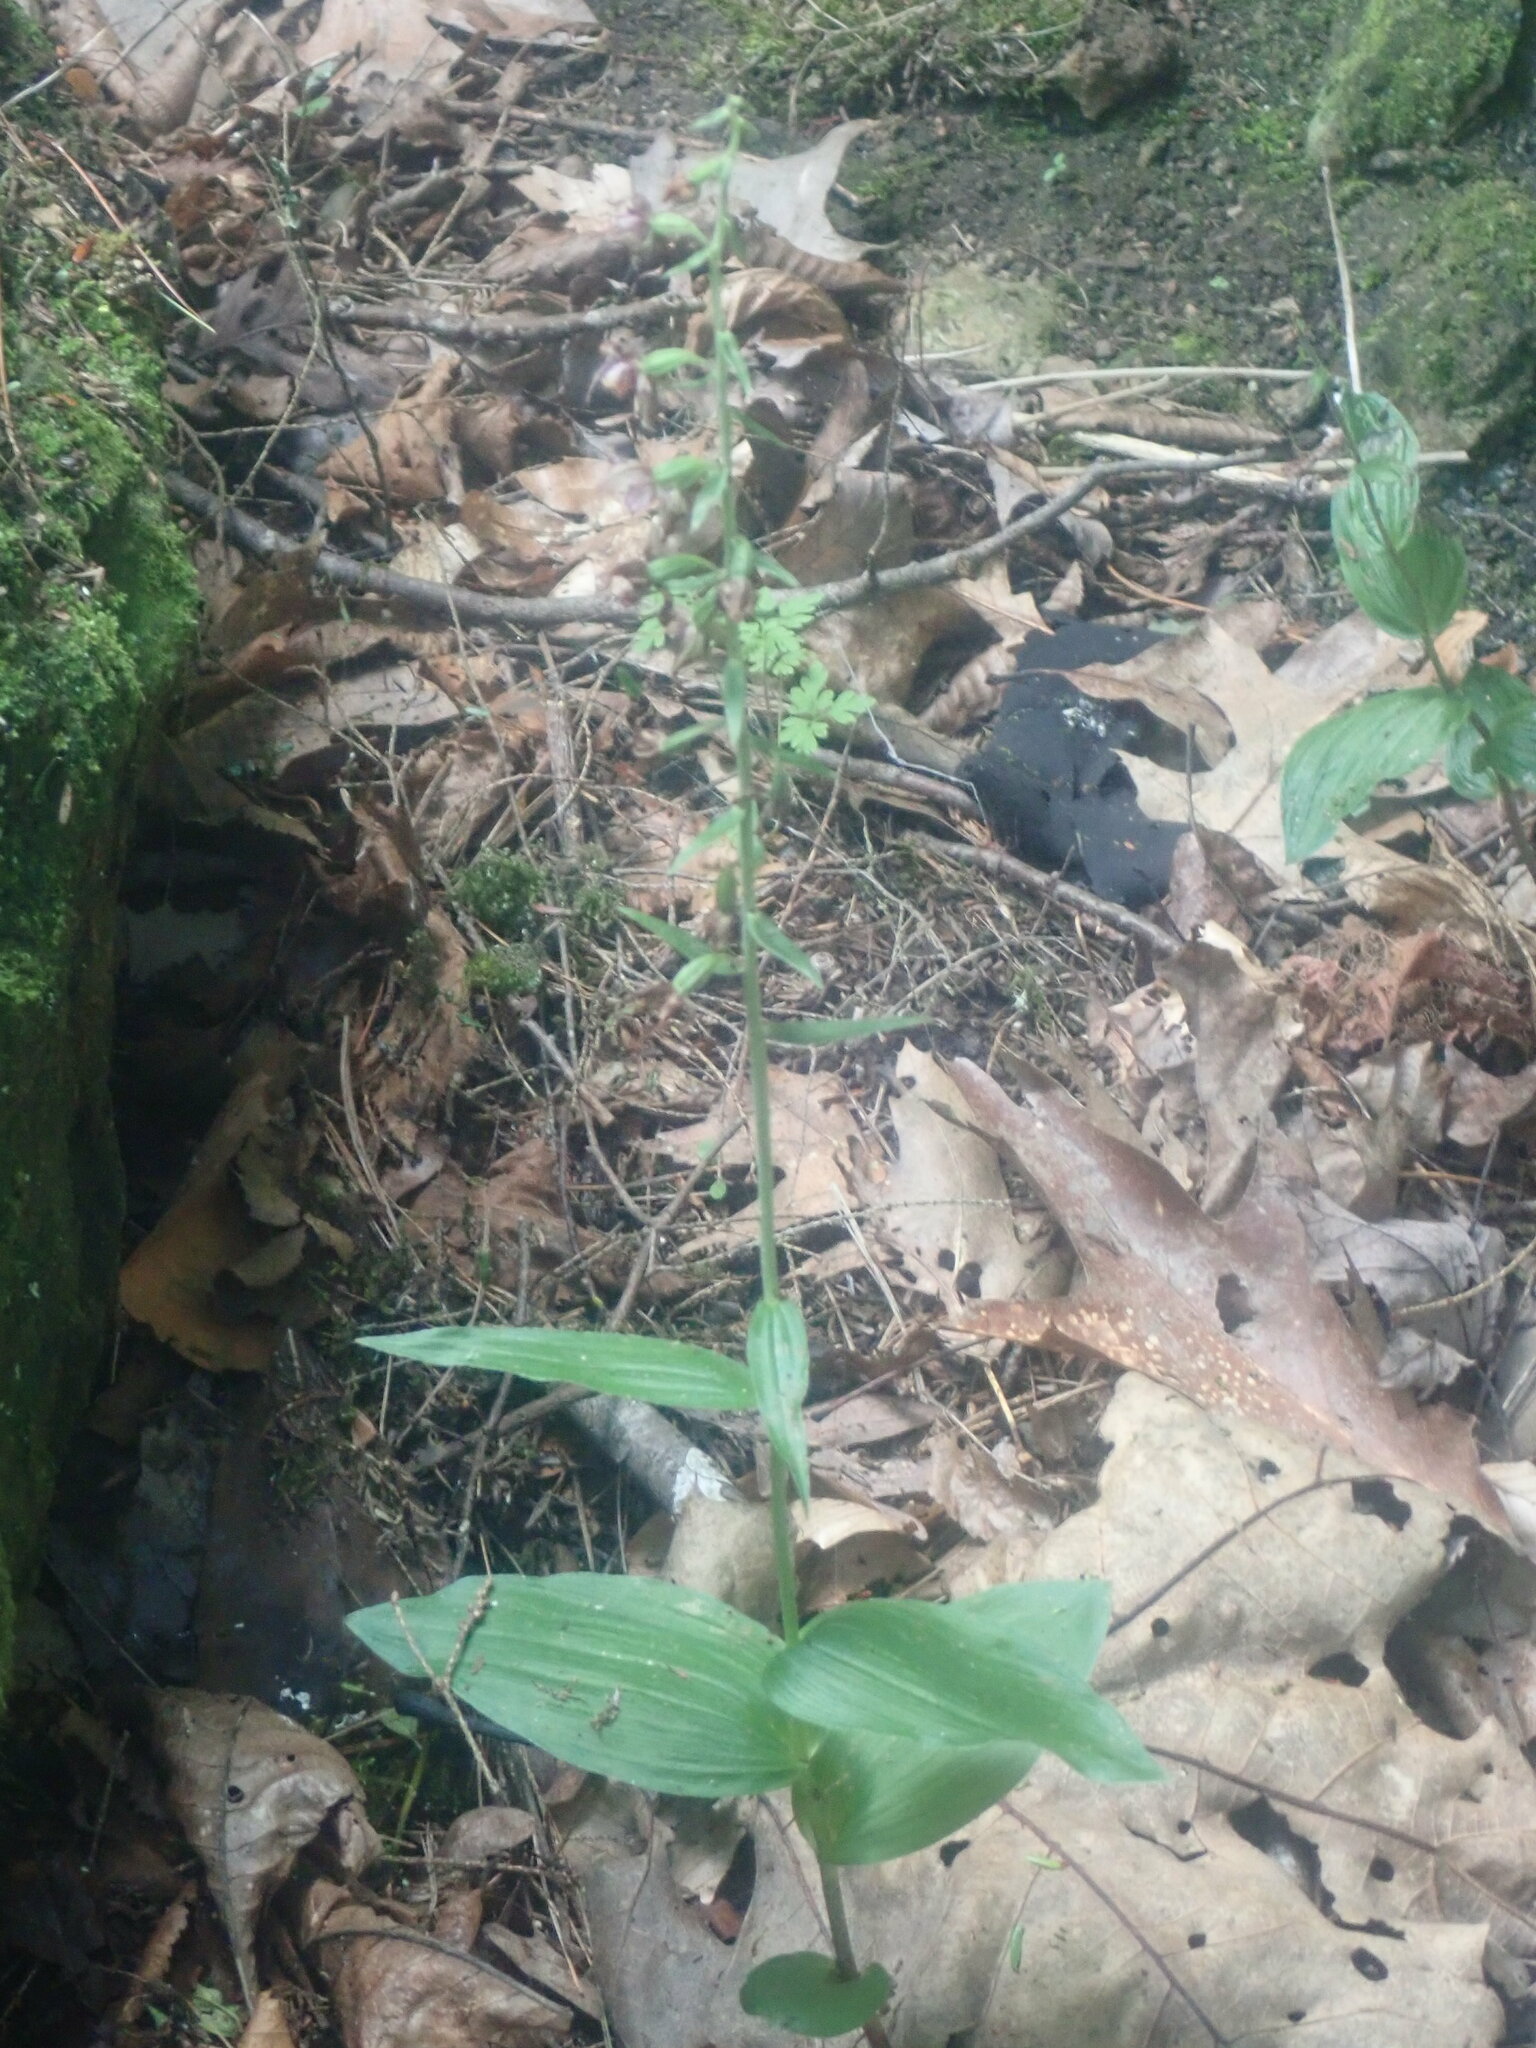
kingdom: Plantae
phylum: Tracheophyta
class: Liliopsida
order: Asparagales
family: Orchidaceae
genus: Epipactis
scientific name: Epipactis helleborine
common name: Broad-leaved helleborine
